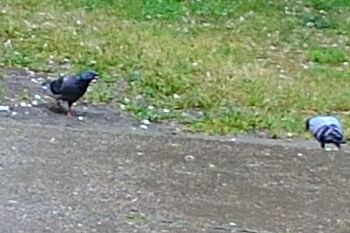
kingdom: Animalia
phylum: Chordata
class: Aves
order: Columbiformes
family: Columbidae
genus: Columba
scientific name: Columba livia
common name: Rock pigeon
